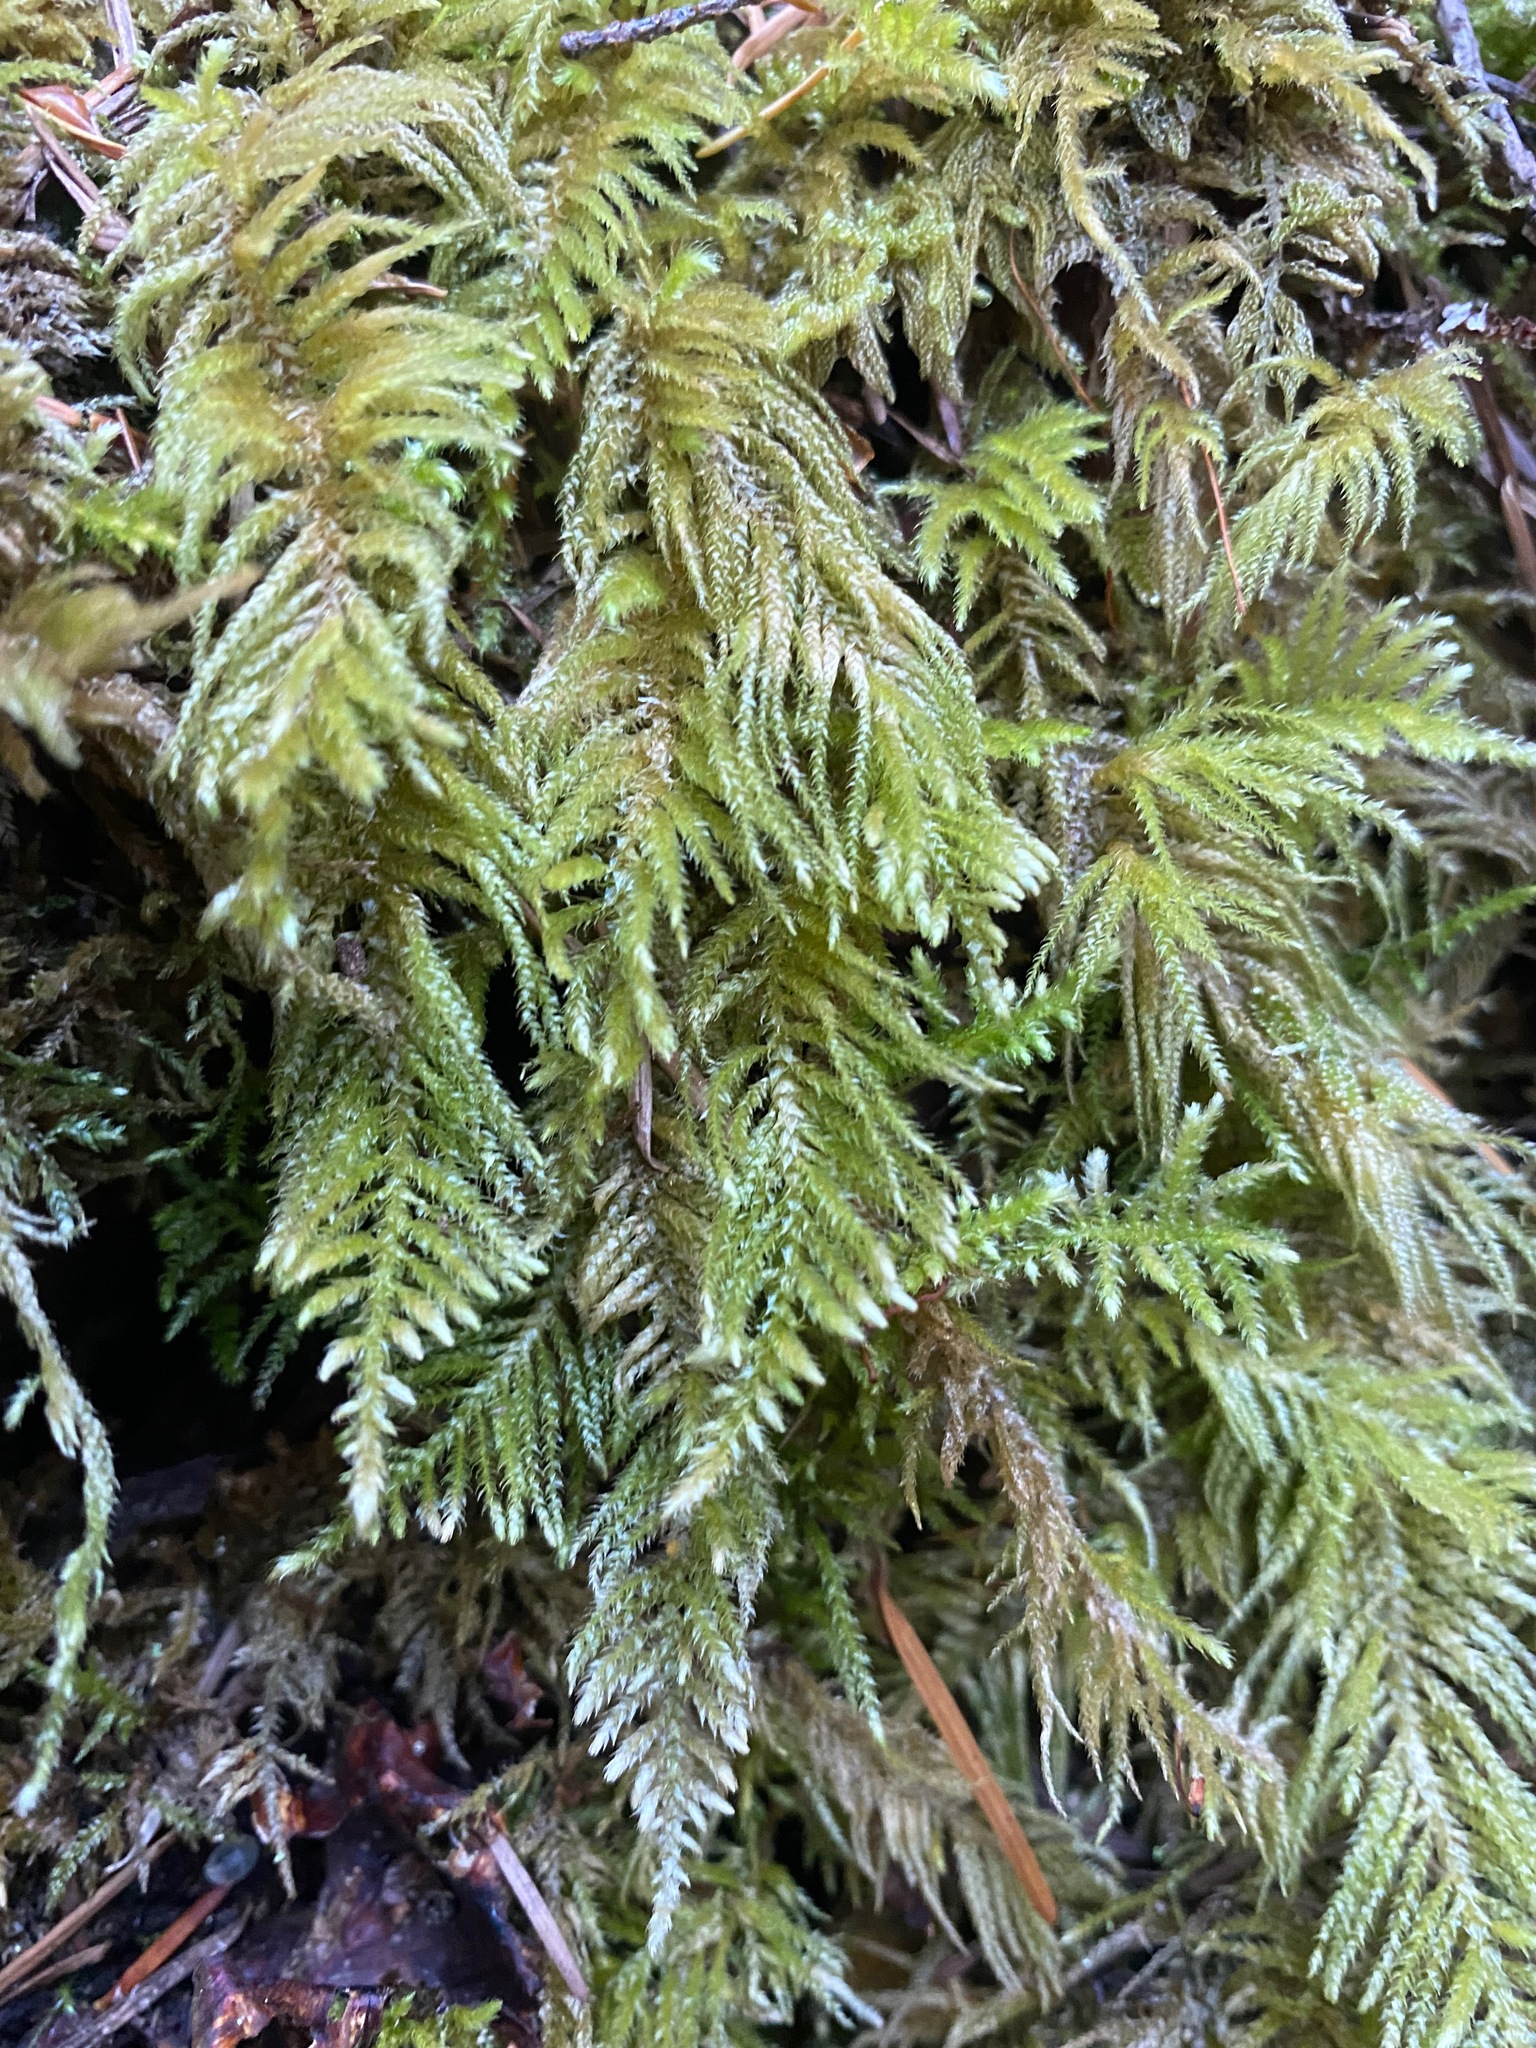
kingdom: Plantae
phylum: Bryophyta
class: Bryopsida
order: Hypnales
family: Brachytheciaceae
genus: Kindbergia
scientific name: Kindbergia oregana
